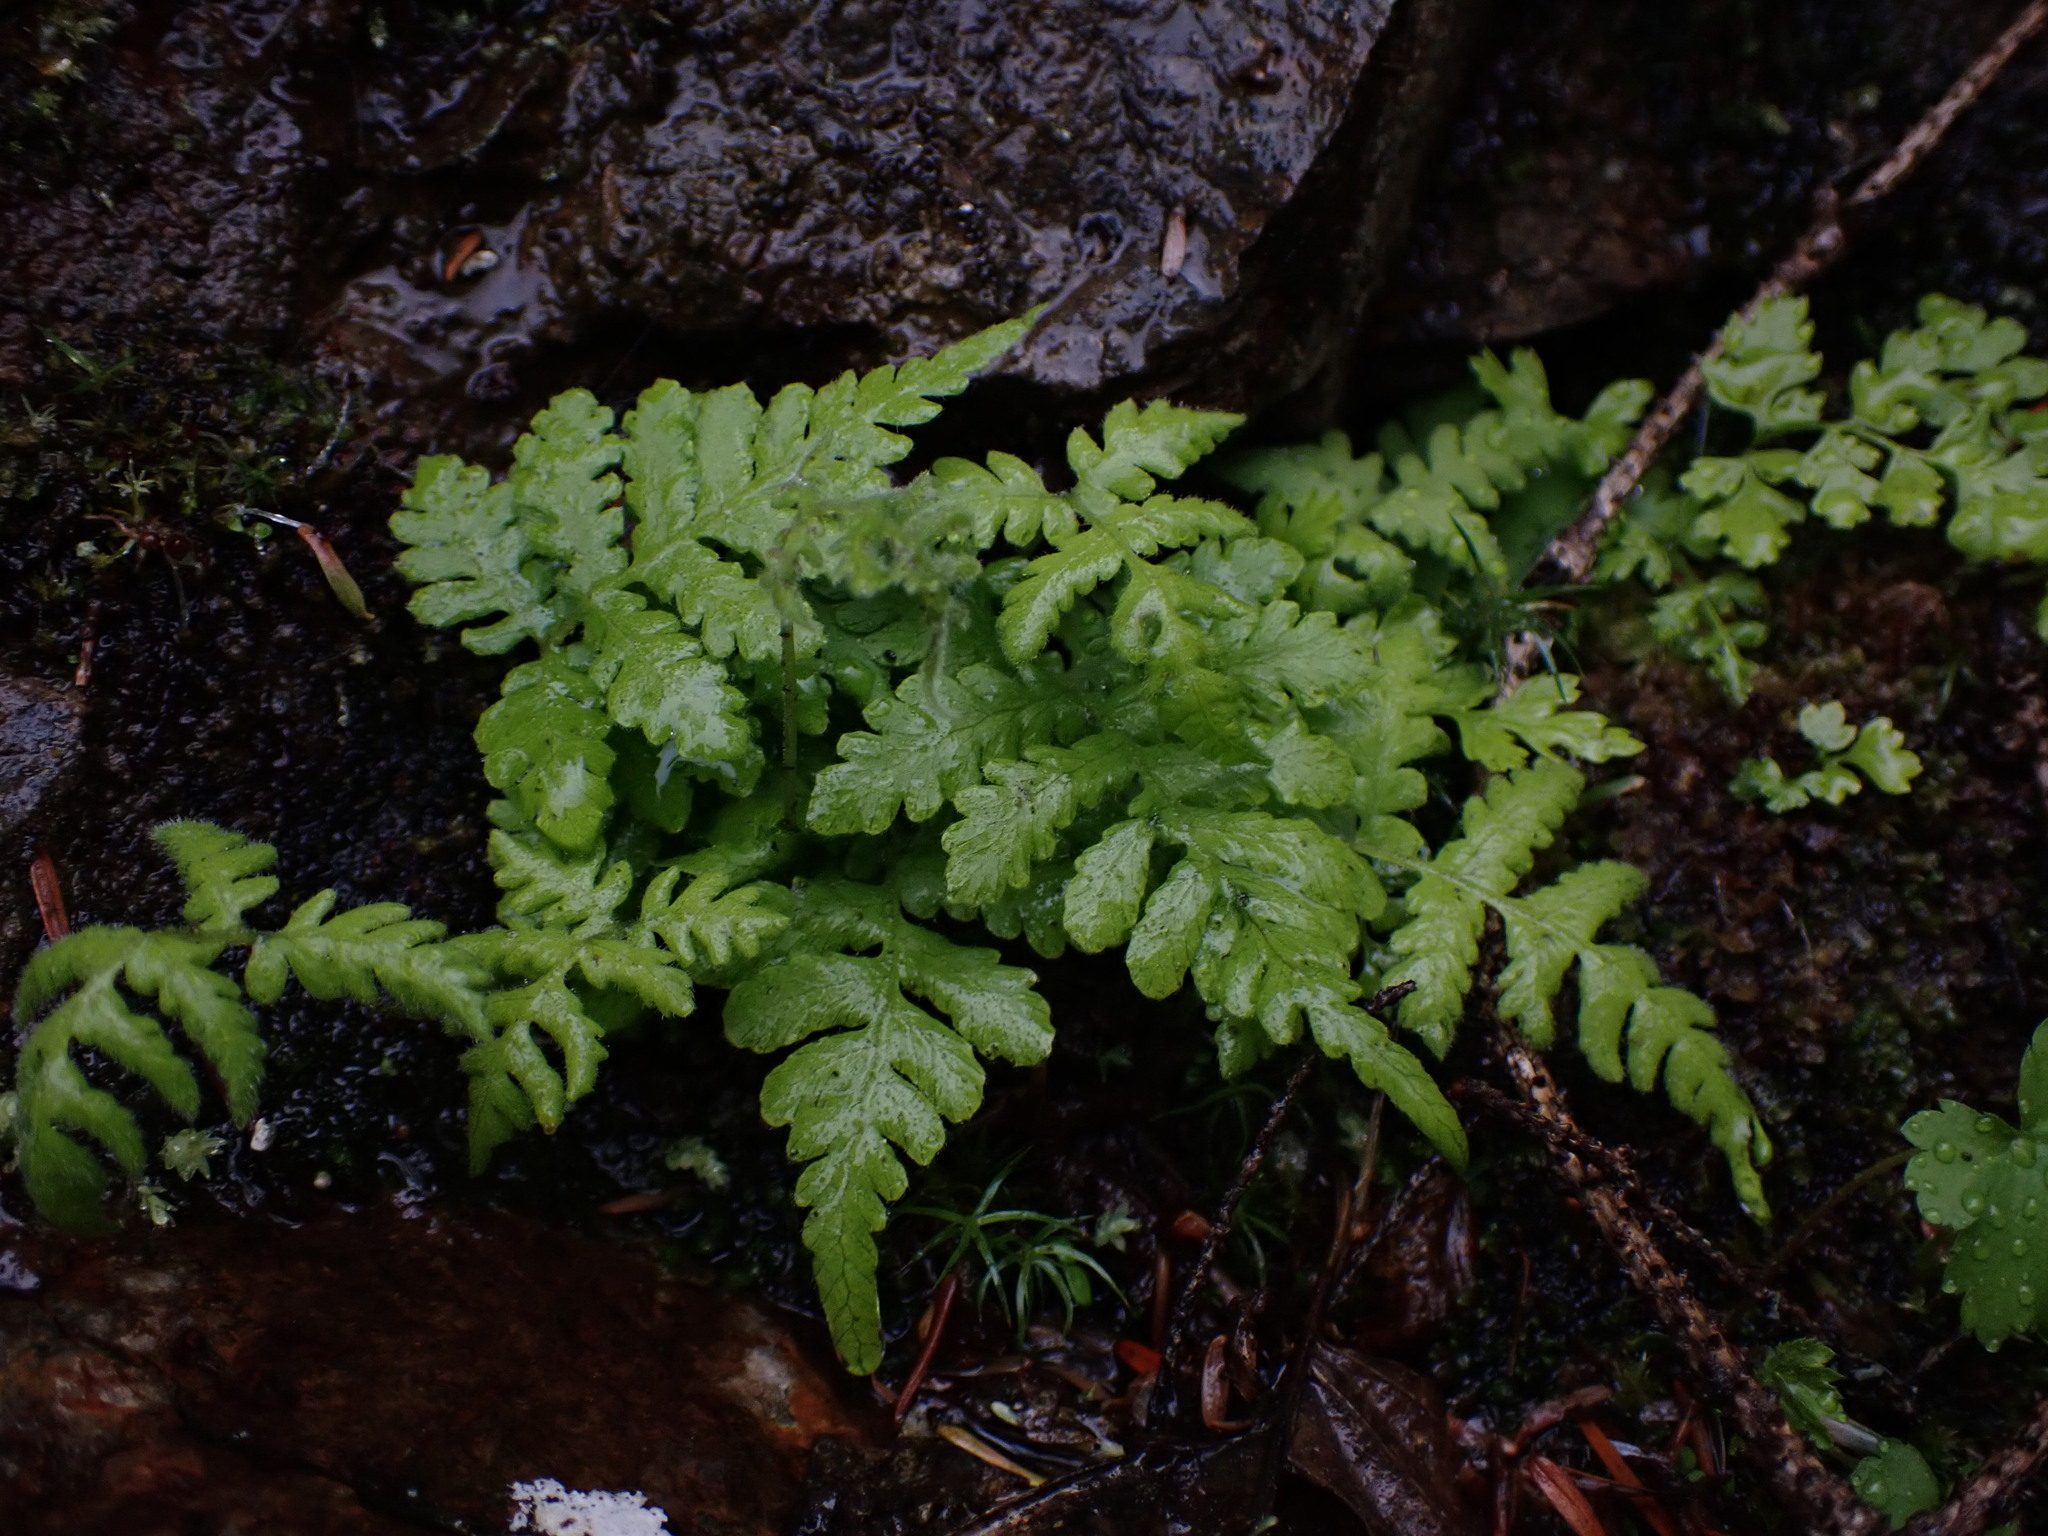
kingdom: Plantae
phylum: Tracheophyta
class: Polypodiopsida
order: Polypodiales
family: Thelypteridaceae
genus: Phegopteris
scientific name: Phegopteris connectilis
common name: Beech fern
